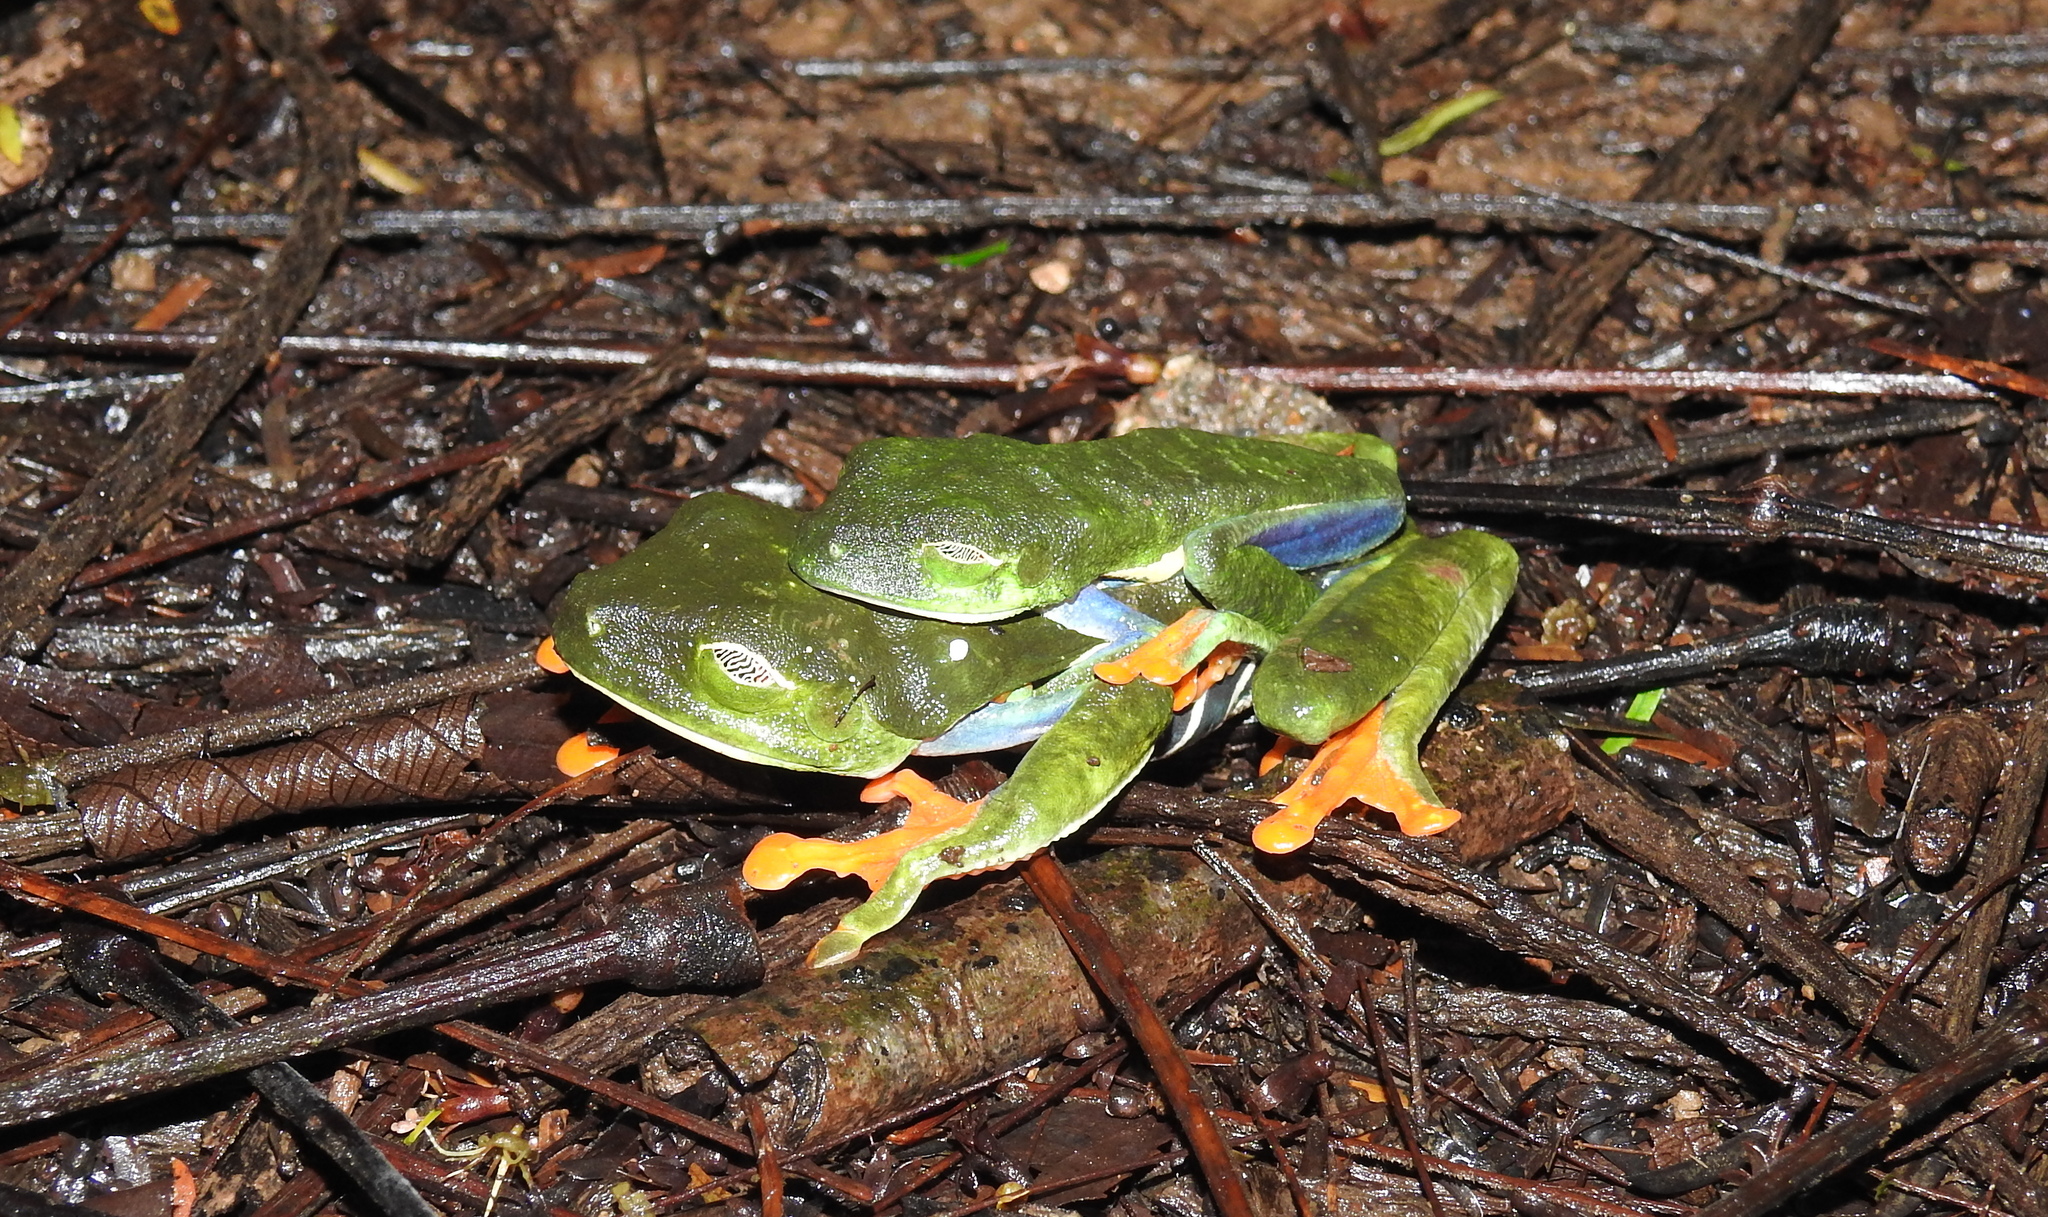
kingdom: Animalia
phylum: Chordata
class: Amphibia
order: Anura
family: Phyllomedusidae
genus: Agalychnis
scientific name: Agalychnis callidryas
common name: Red-eyed treefrog
